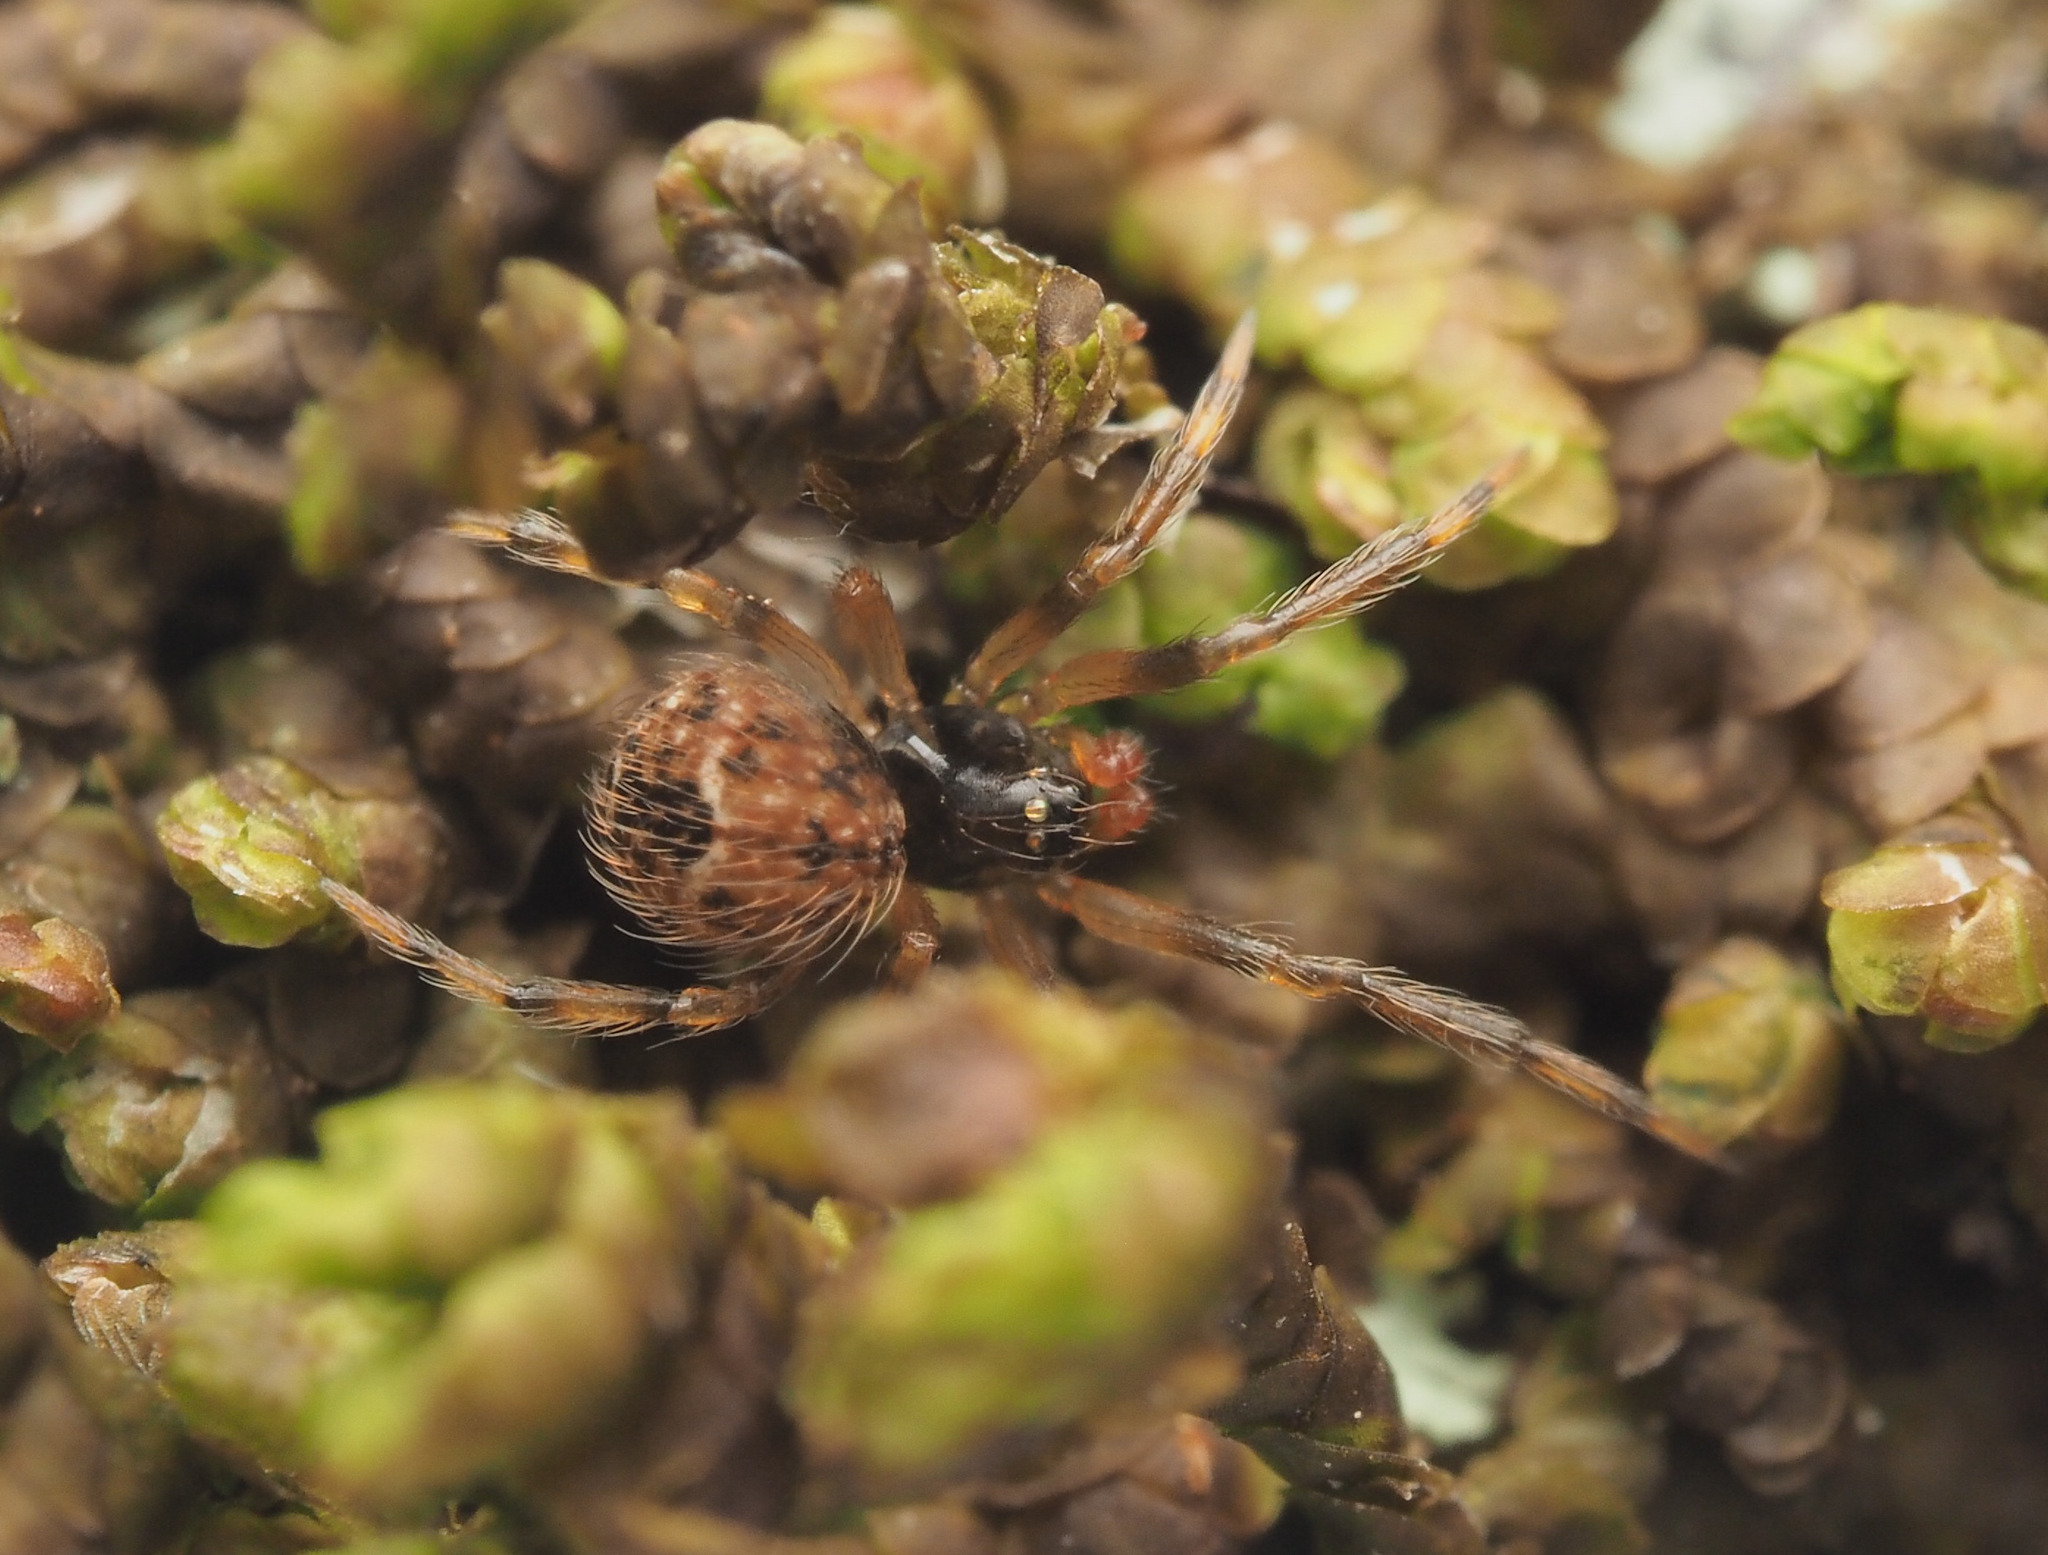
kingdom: Animalia
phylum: Arthropoda
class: Arachnida
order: Araneae
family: Theridiidae
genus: Dipoena
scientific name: Dipoena
